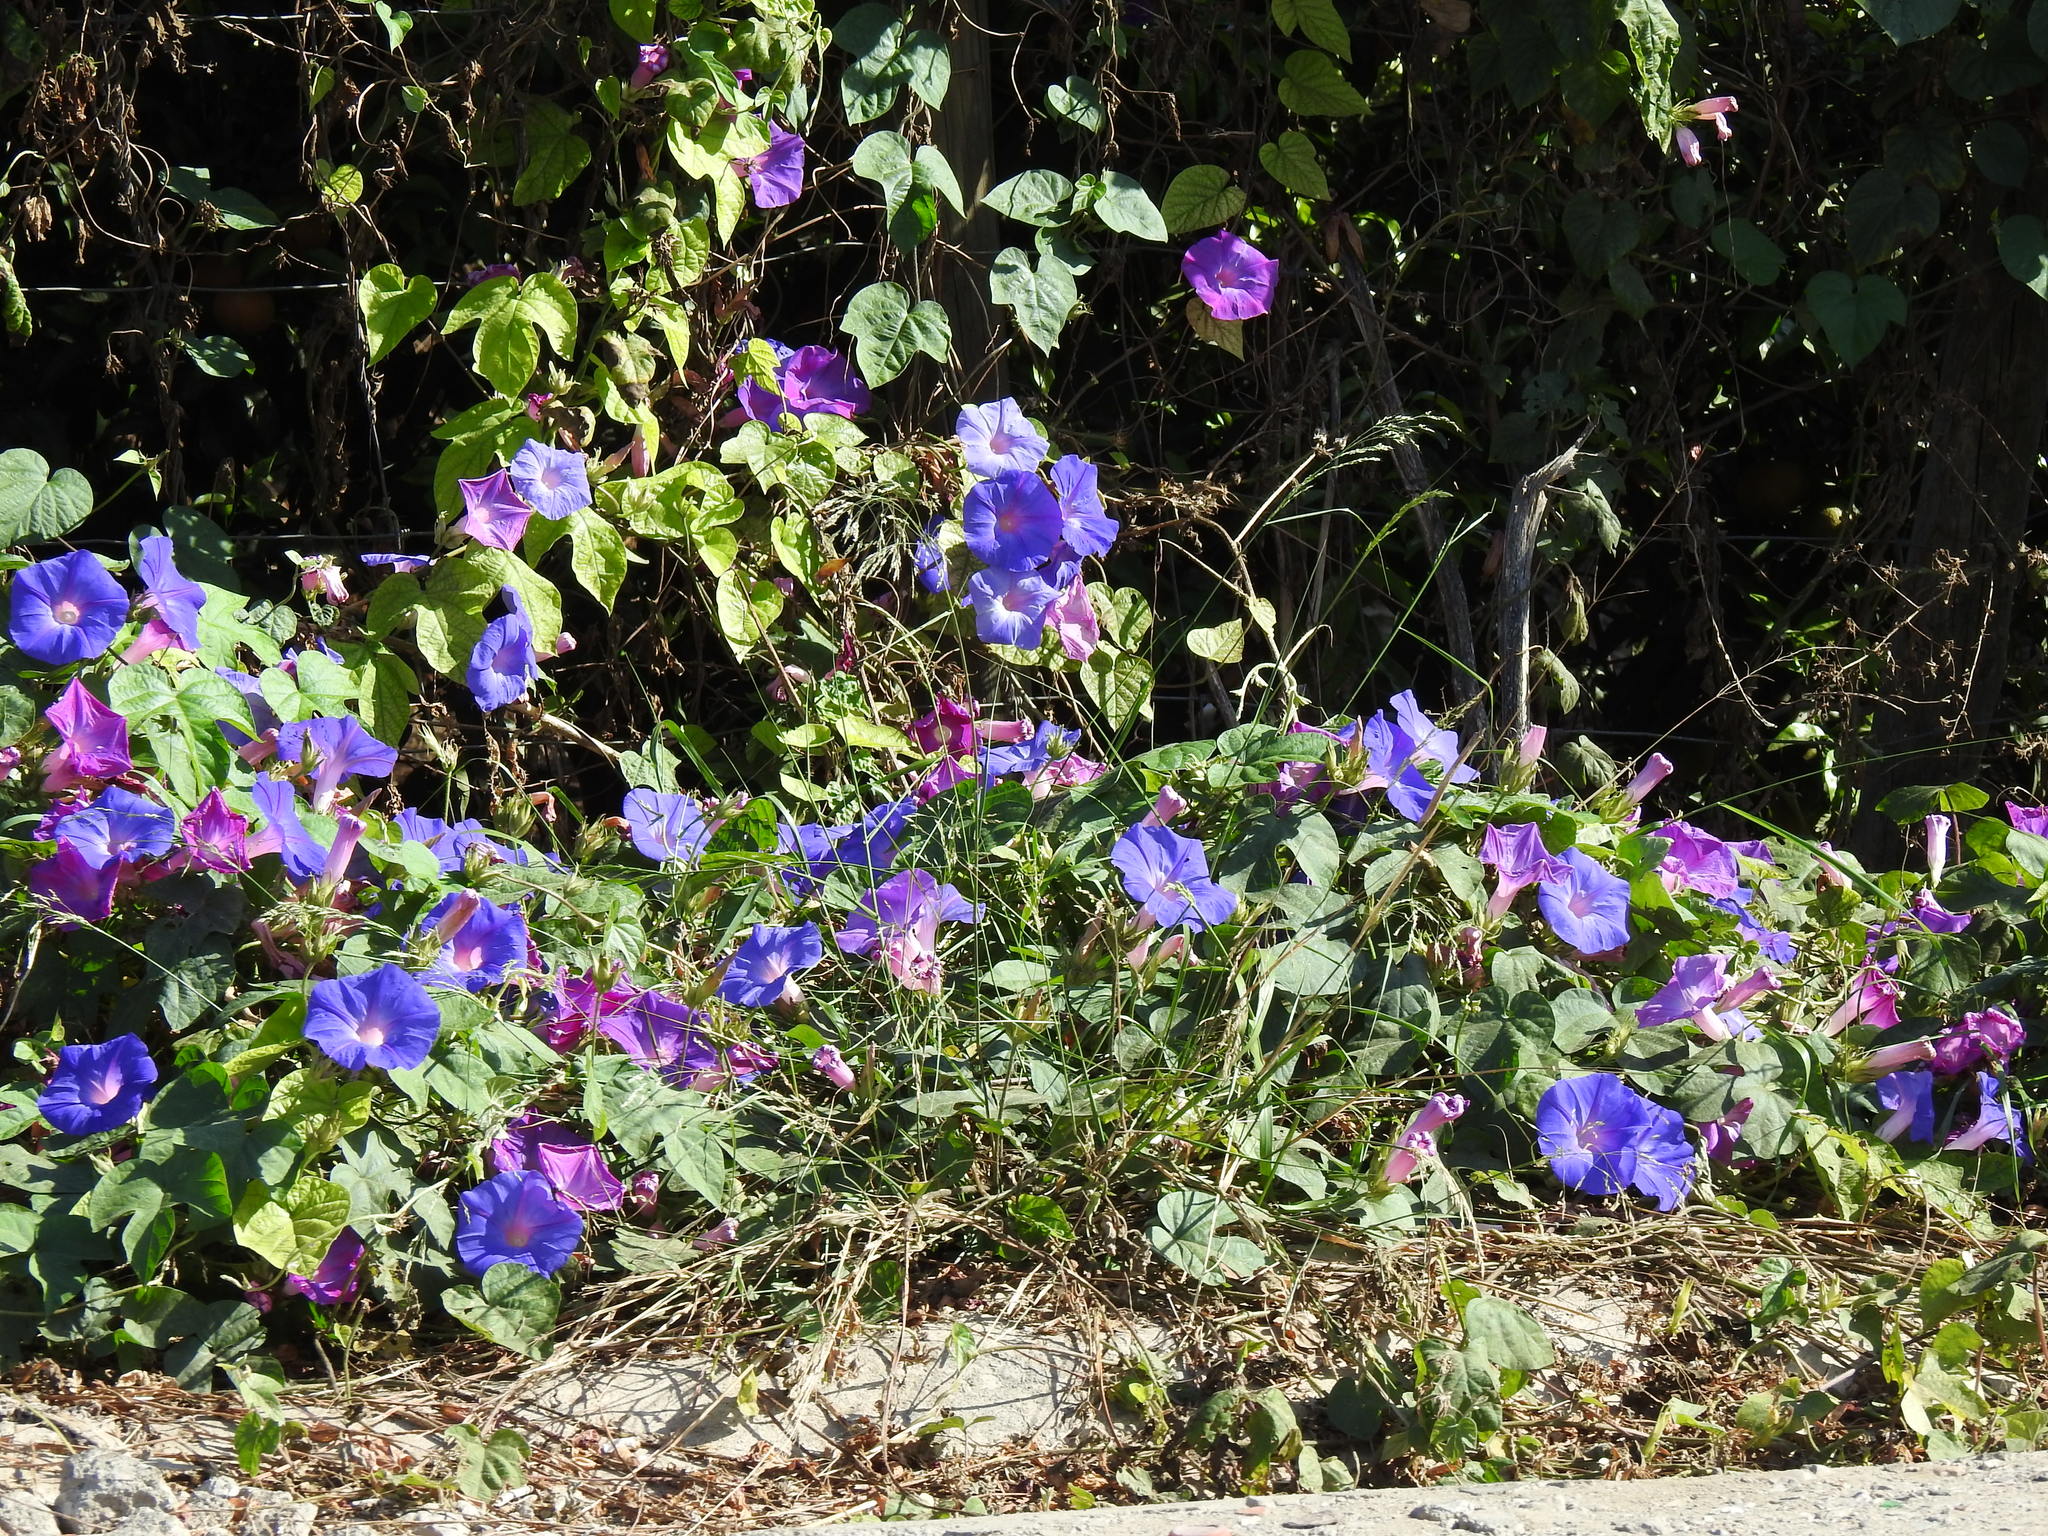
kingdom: Plantae
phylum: Tracheophyta
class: Magnoliopsida
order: Solanales
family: Convolvulaceae
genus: Ipomoea
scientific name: Ipomoea indica
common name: Blue dawnflower
